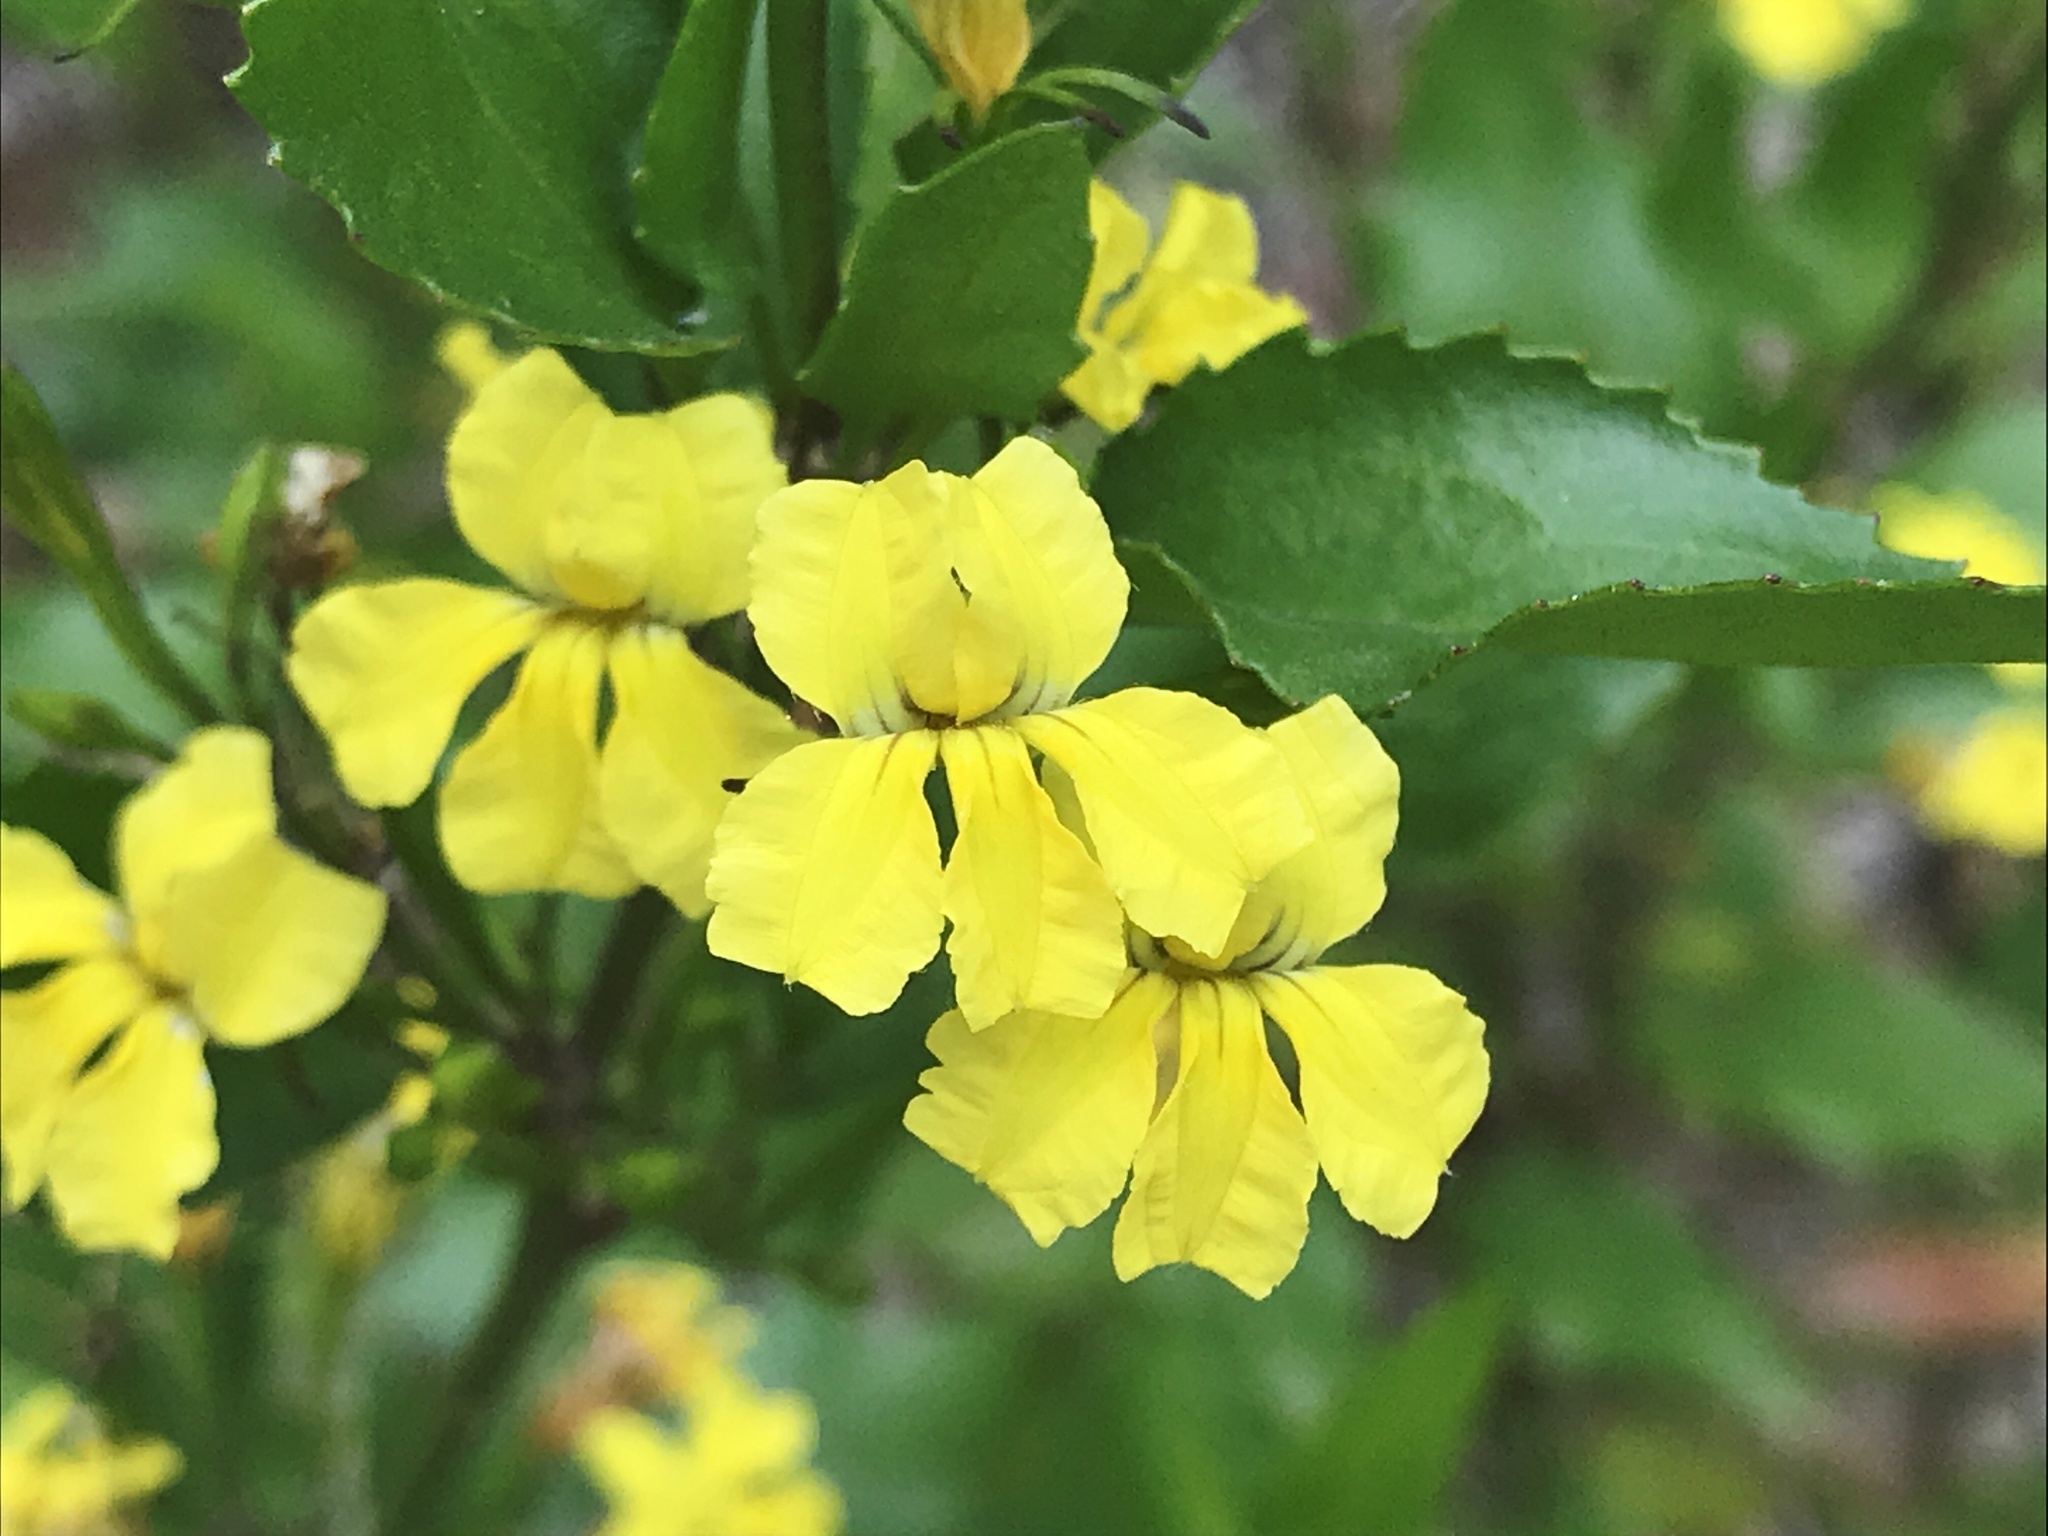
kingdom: Plantae
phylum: Tracheophyta
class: Magnoliopsida
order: Asterales
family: Goodeniaceae
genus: Goodenia
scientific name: Goodenia ovata
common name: Hop goodenia
